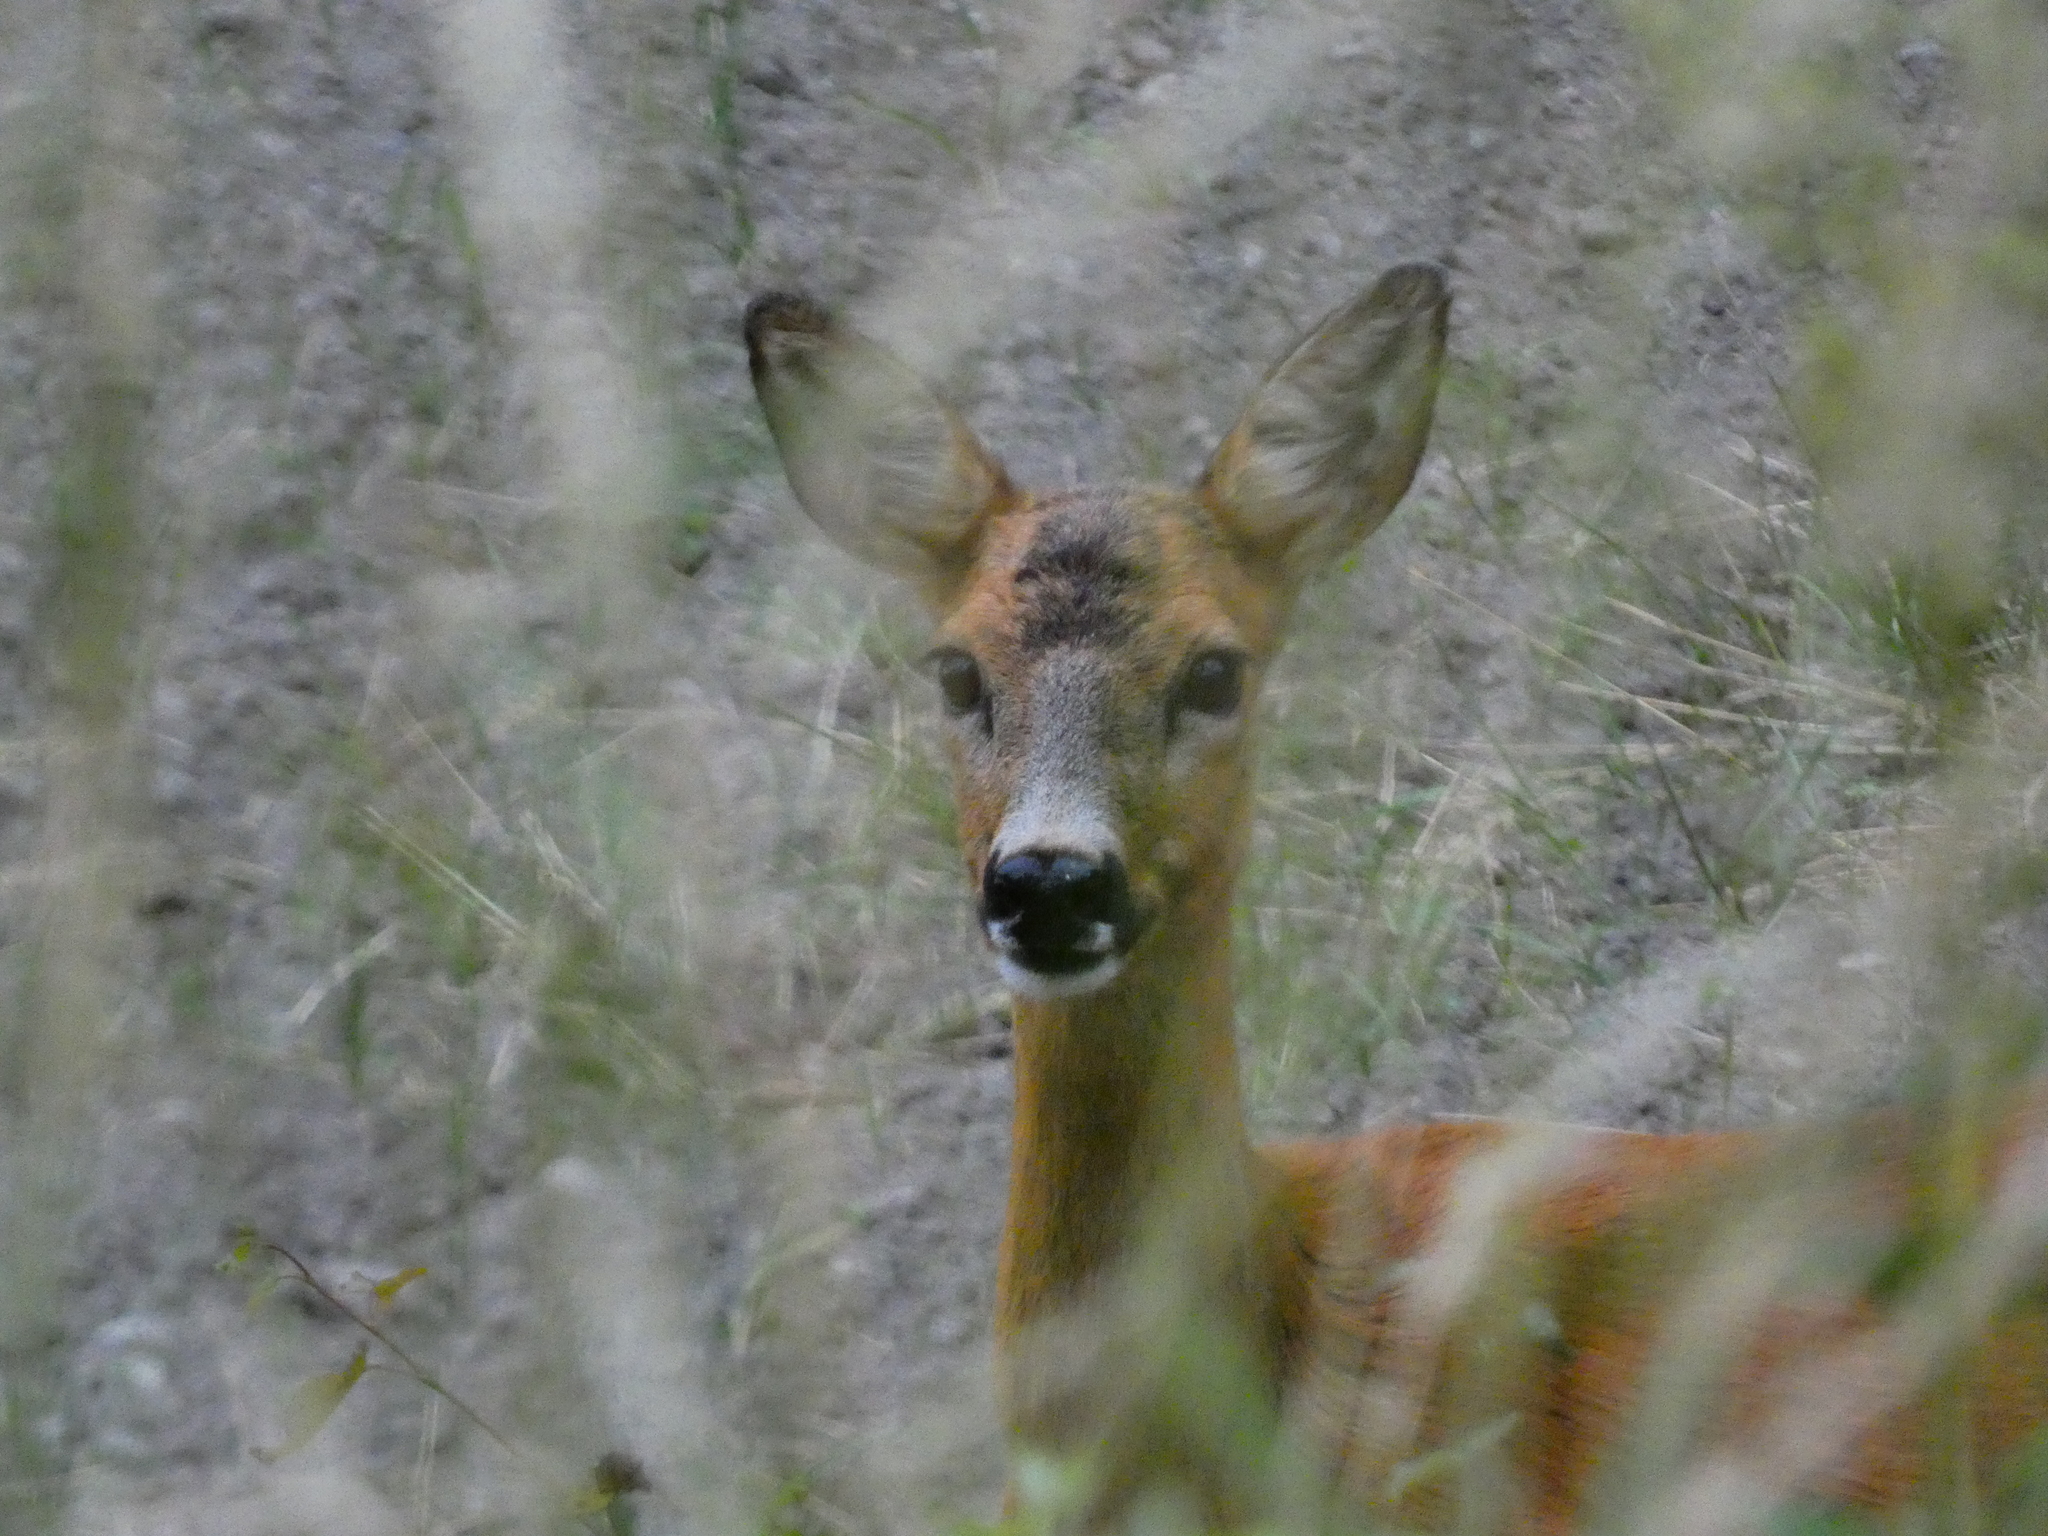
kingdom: Animalia
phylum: Chordata
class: Mammalia
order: Artiodactyla
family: Cervidae
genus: Capreolus
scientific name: Capreolus capreolus
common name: Western roe deer
